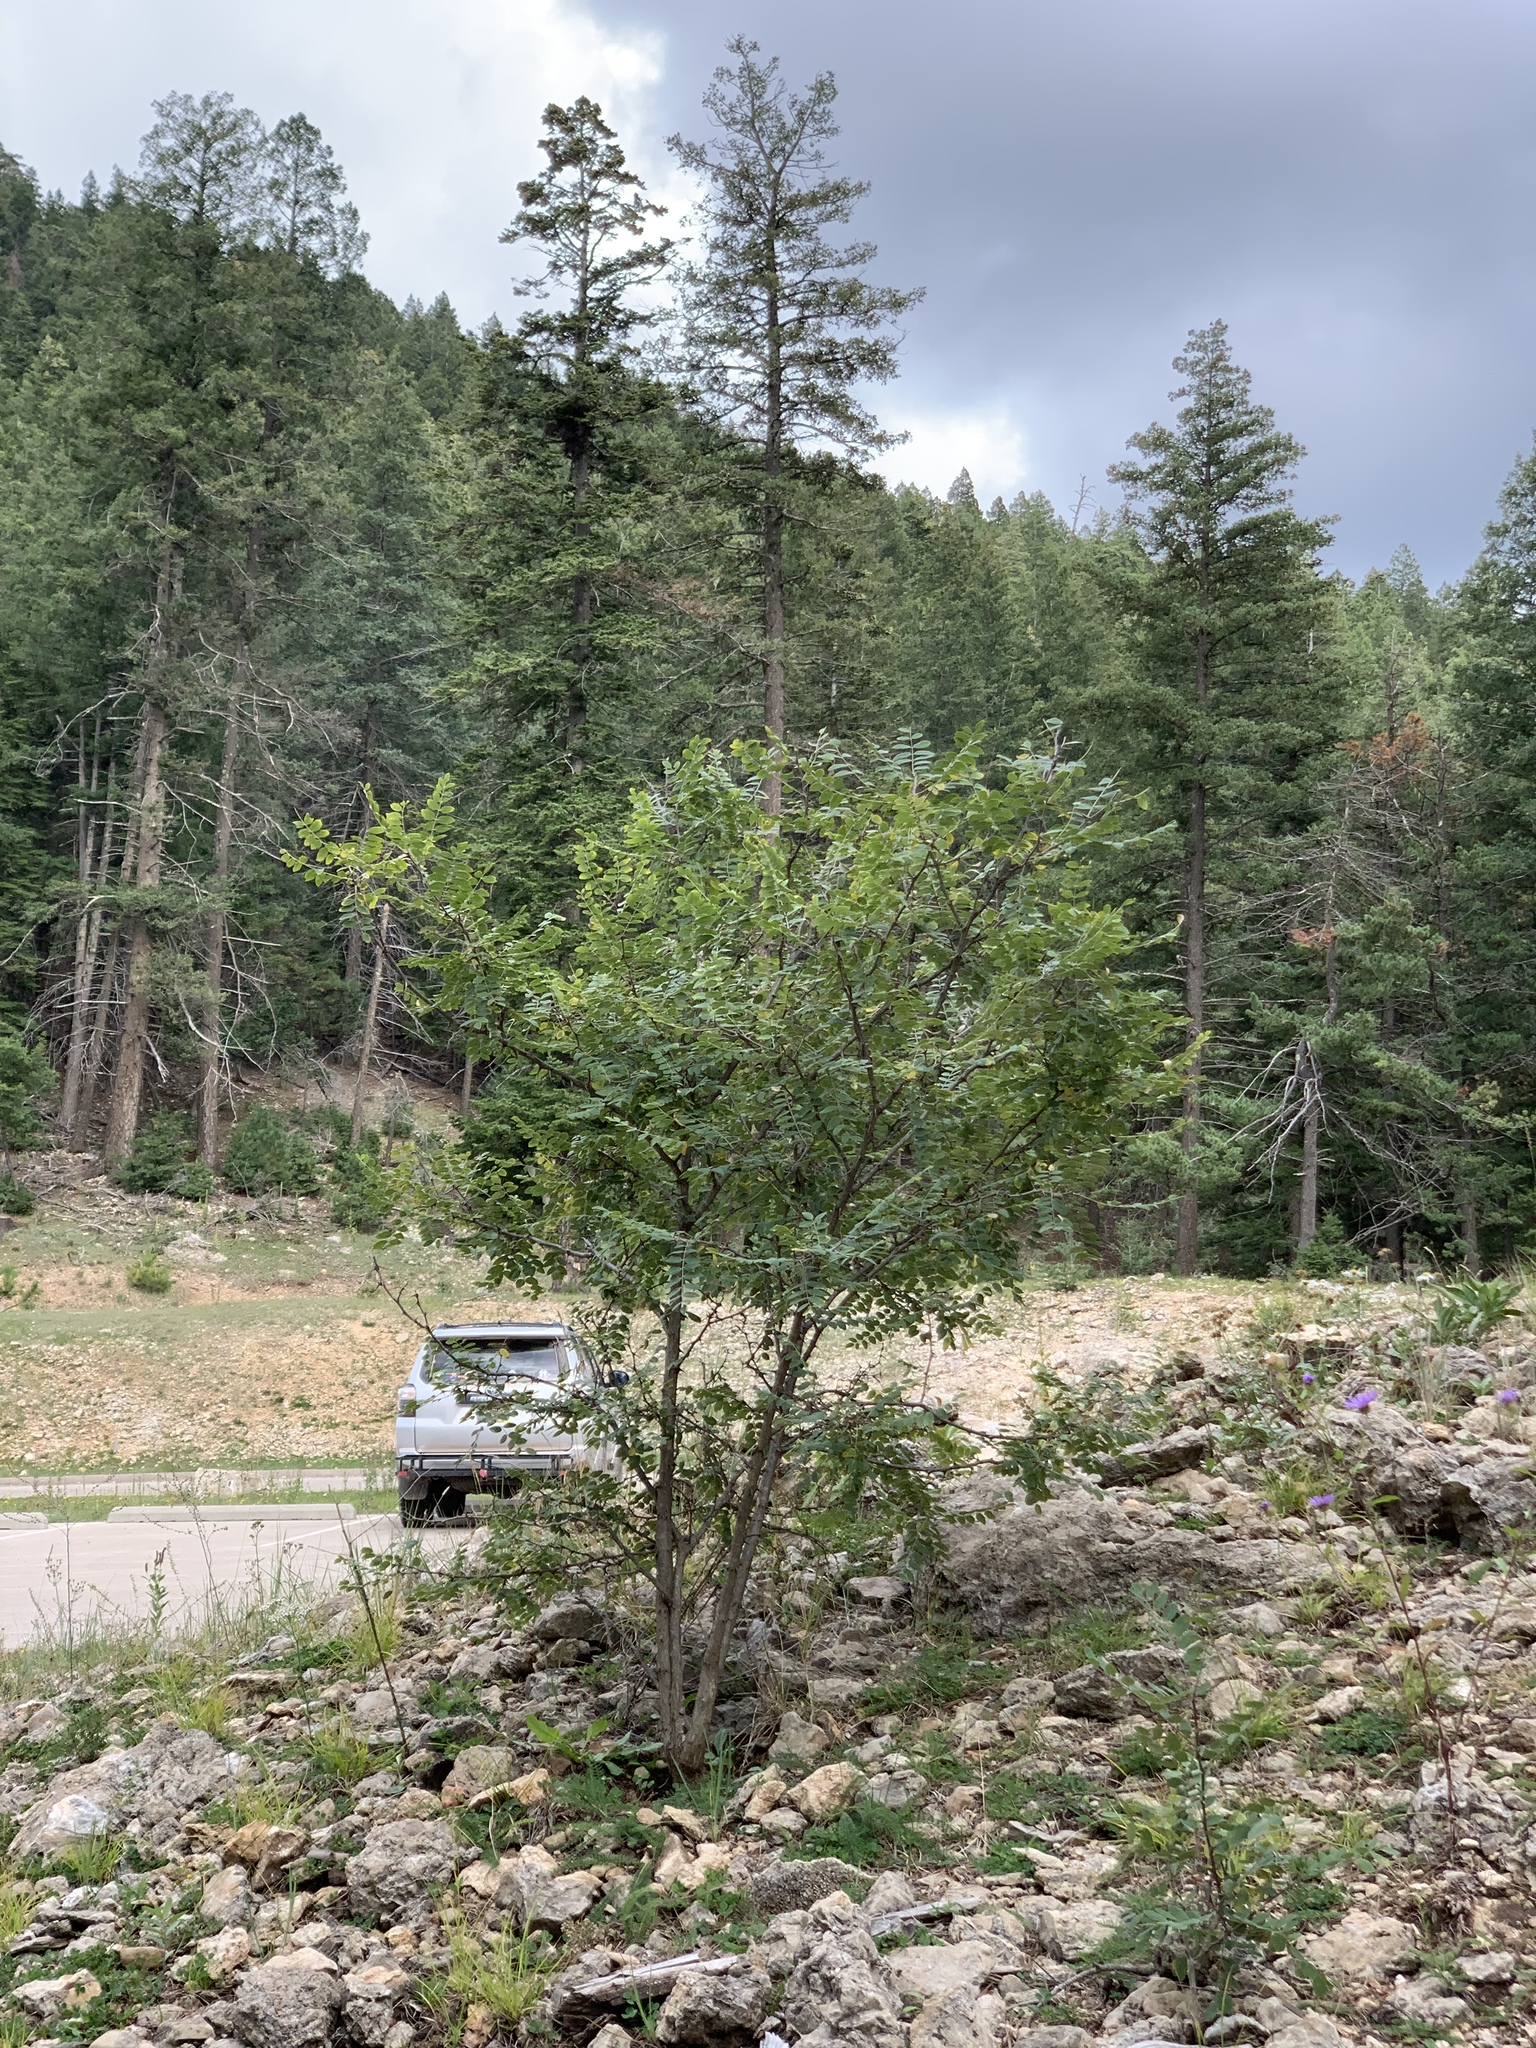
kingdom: Plantae
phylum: Tracheophyta
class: Magnoliopsida
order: Fabales
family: Fabaceae
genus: Robinia
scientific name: Robinia neomexicana
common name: New mexico locust
